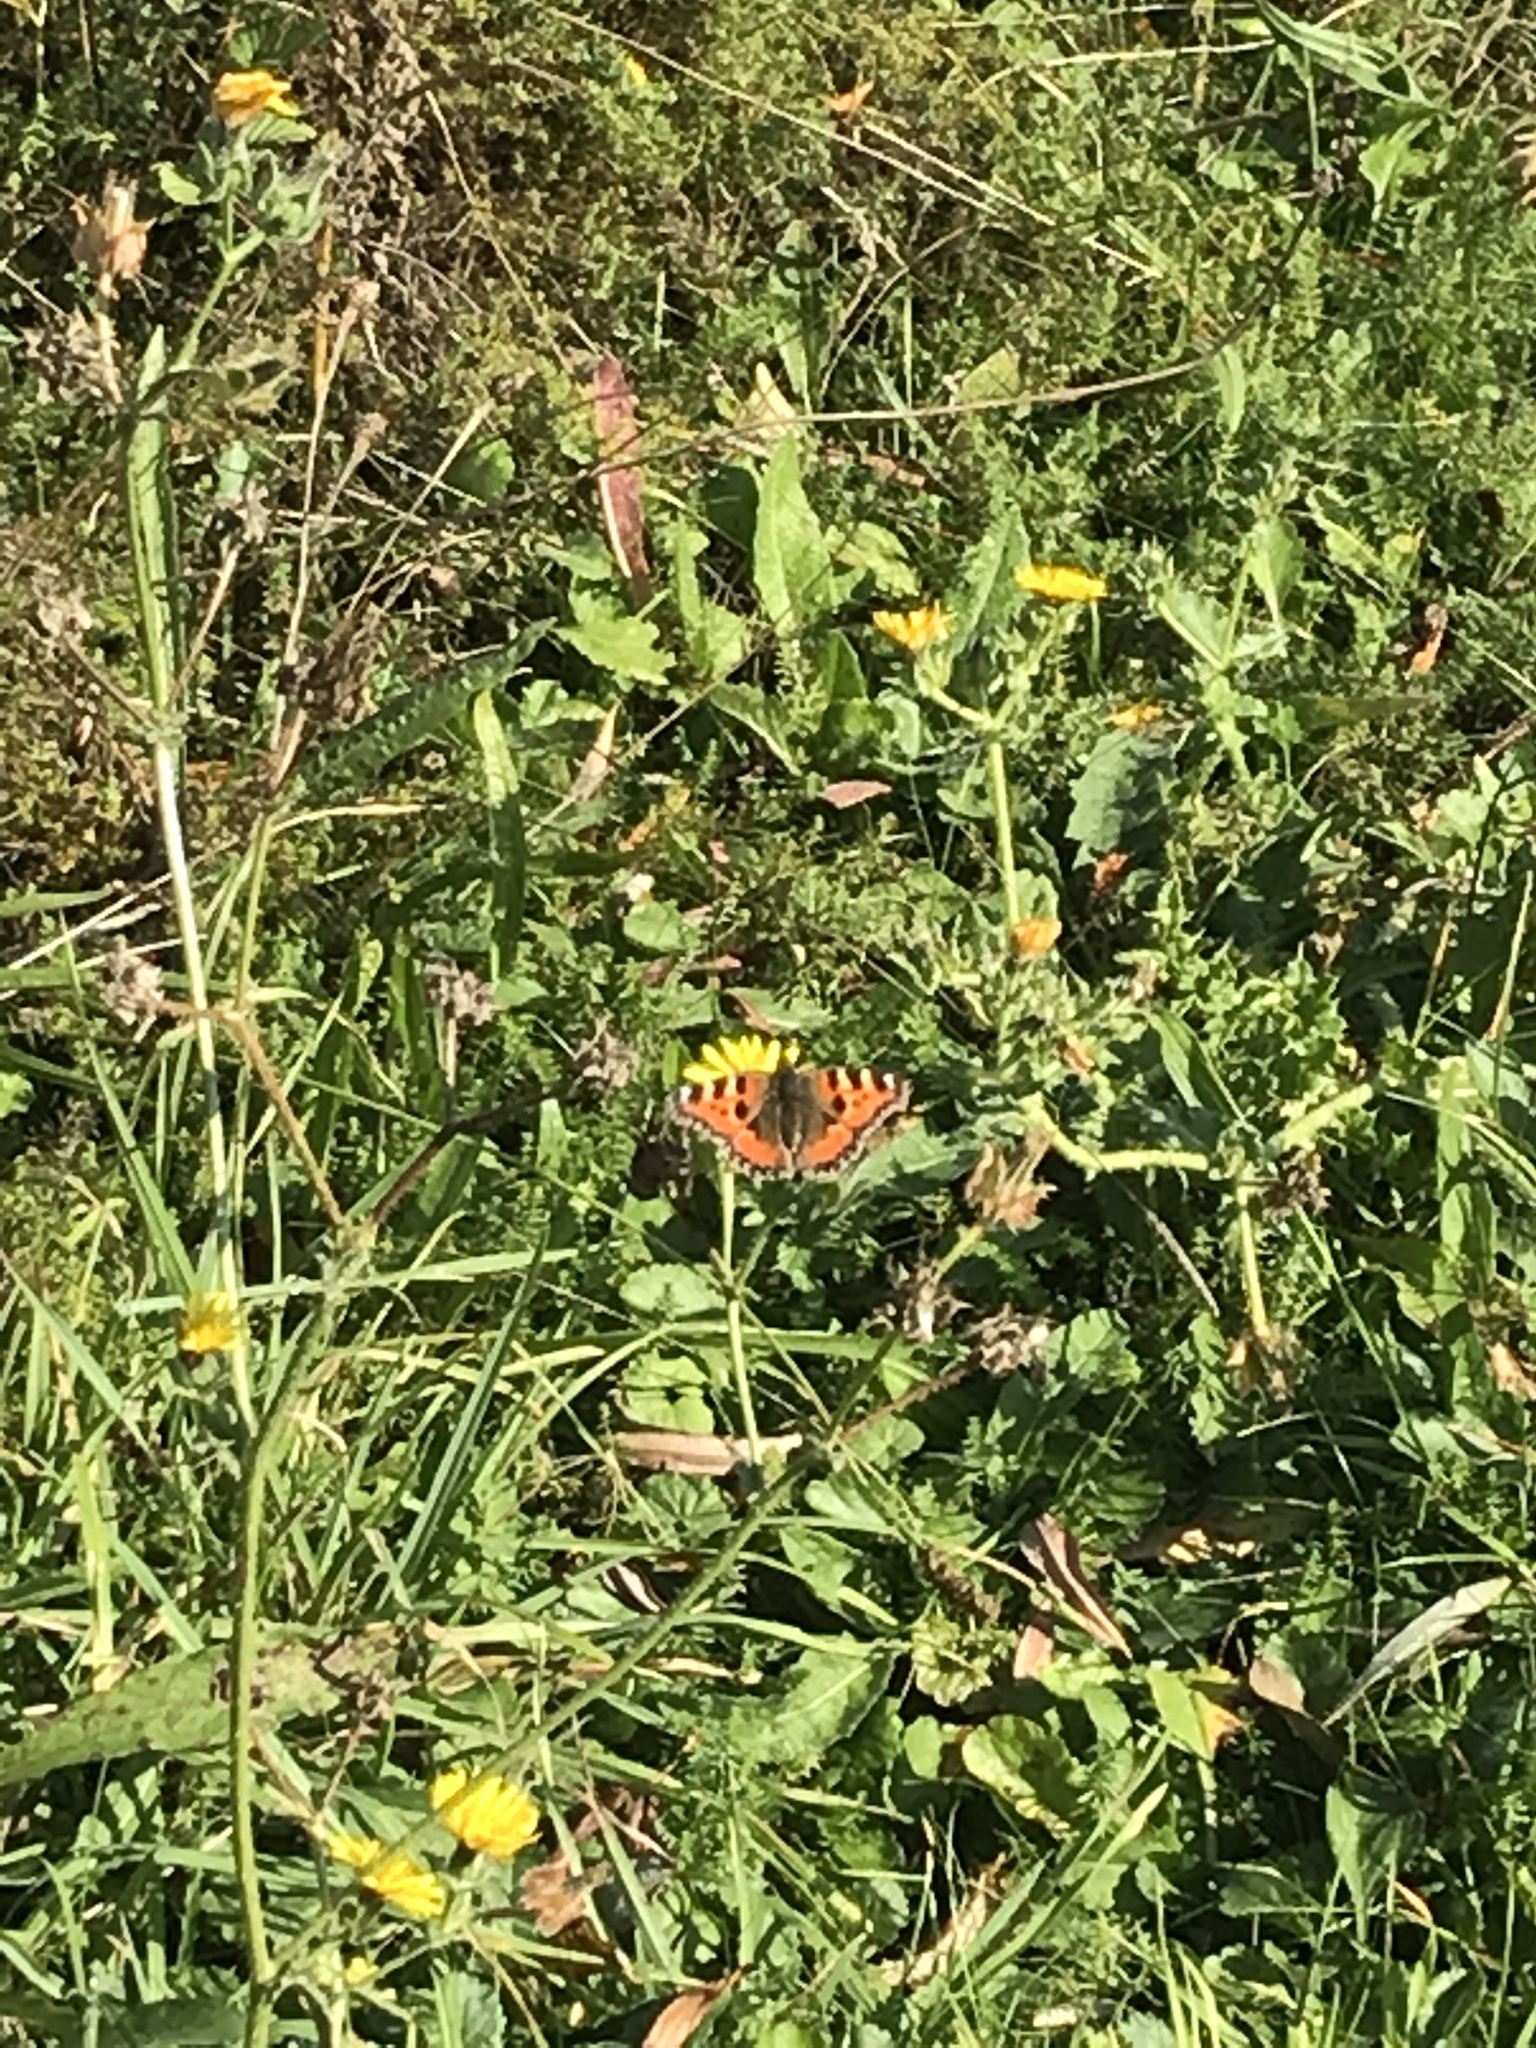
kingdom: Animalia
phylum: Arthropoda
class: Insecta
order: Lepidoptera
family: Nymphalidae
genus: Aglais
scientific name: Aglais urticae
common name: Small tortoiseshell
